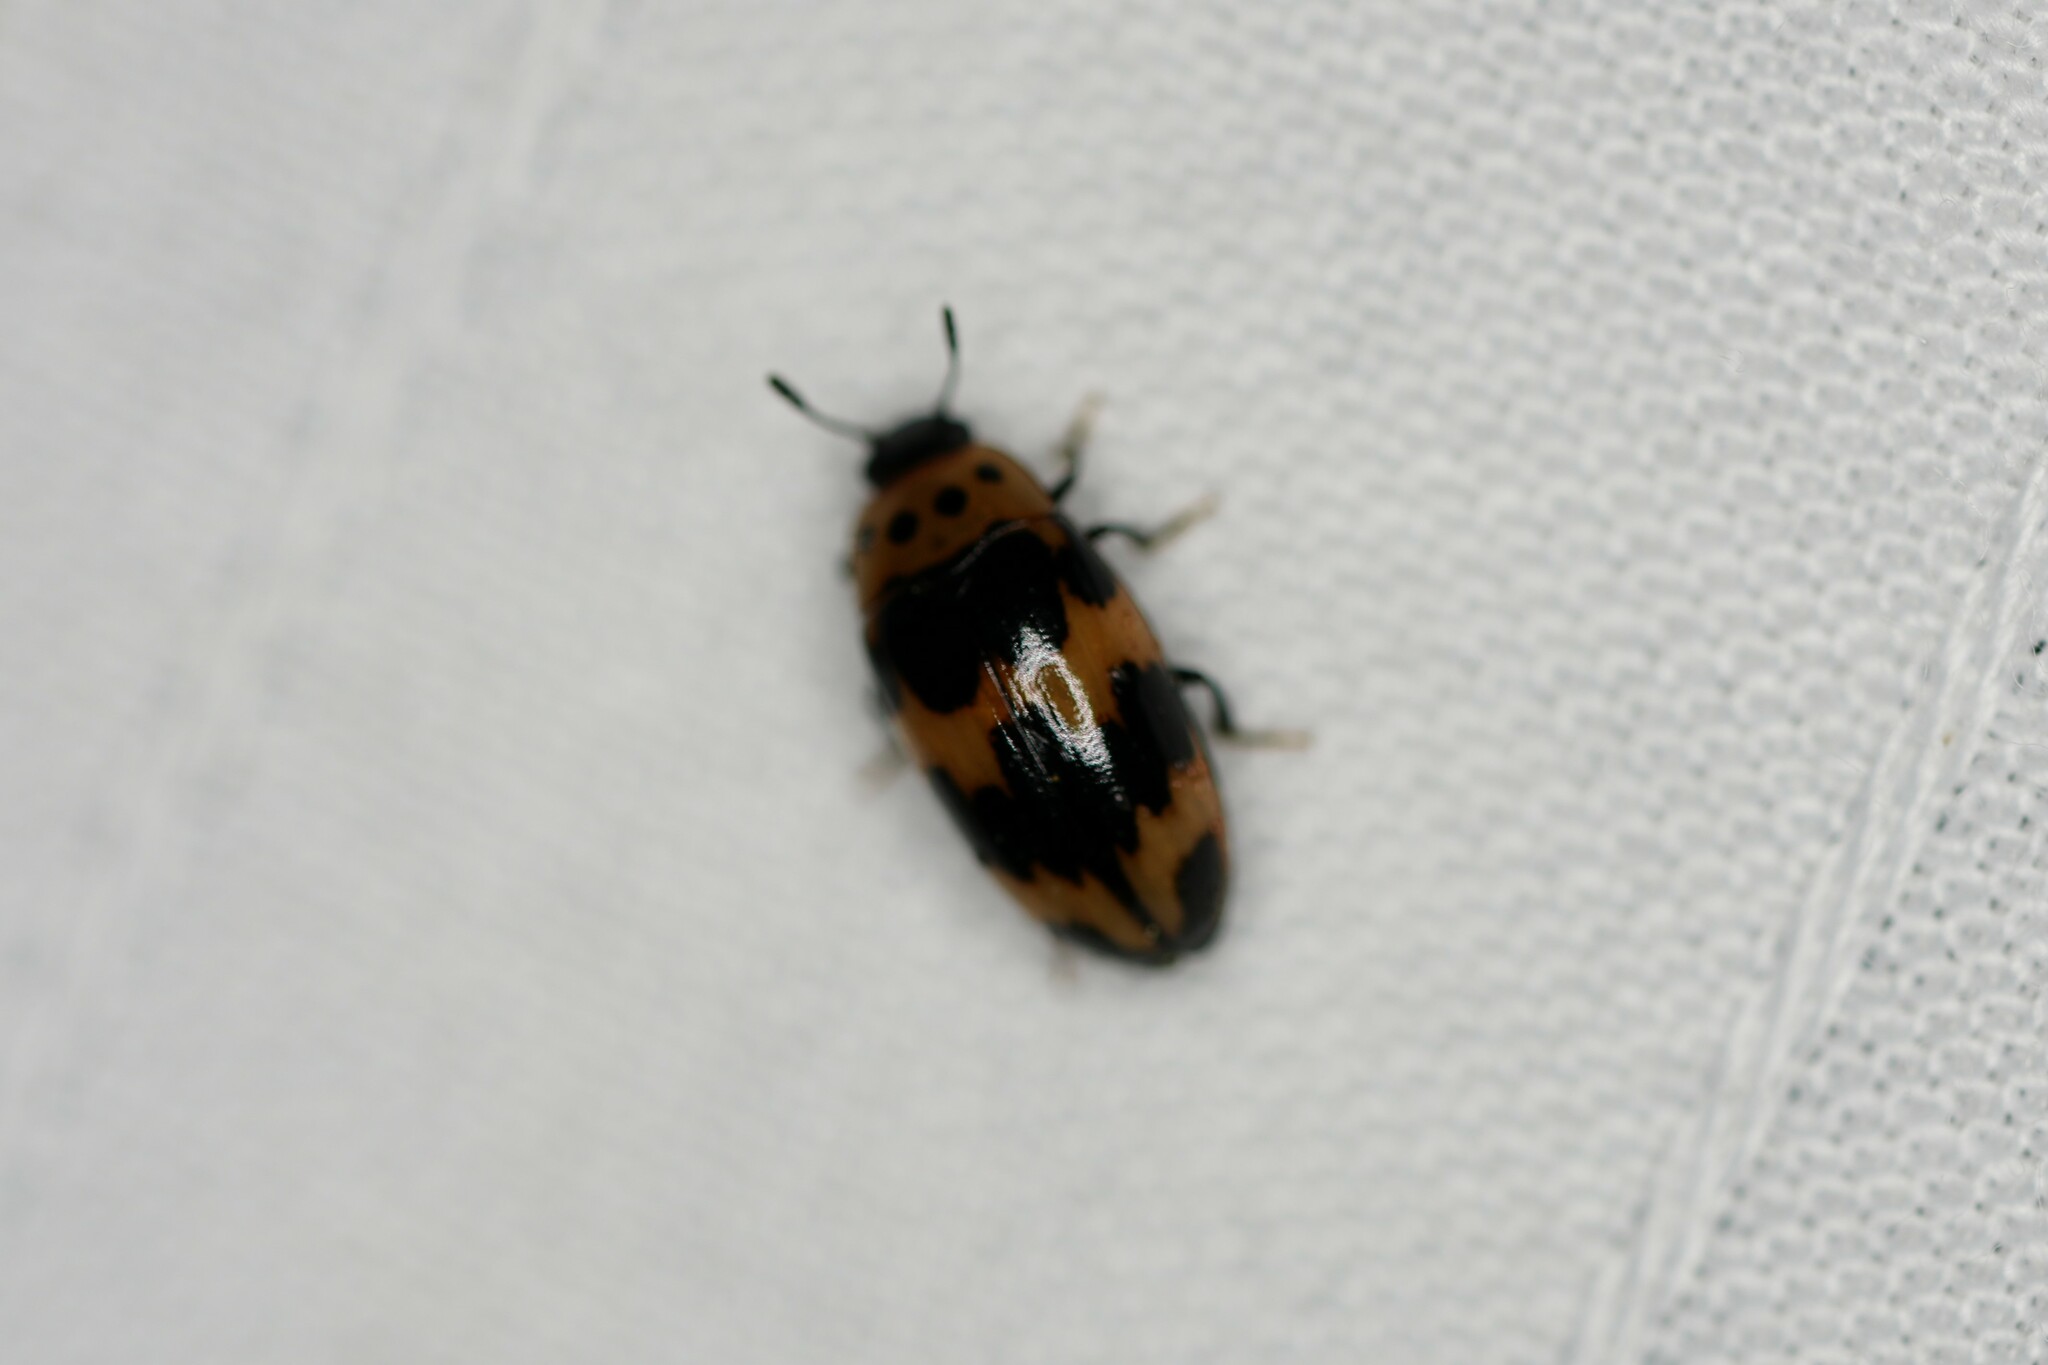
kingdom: Animalia
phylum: Arthropoda
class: Insecta
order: Coleoptera
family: Erotylidae
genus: Ischyrus
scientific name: Ischyrus quadripunctatus
